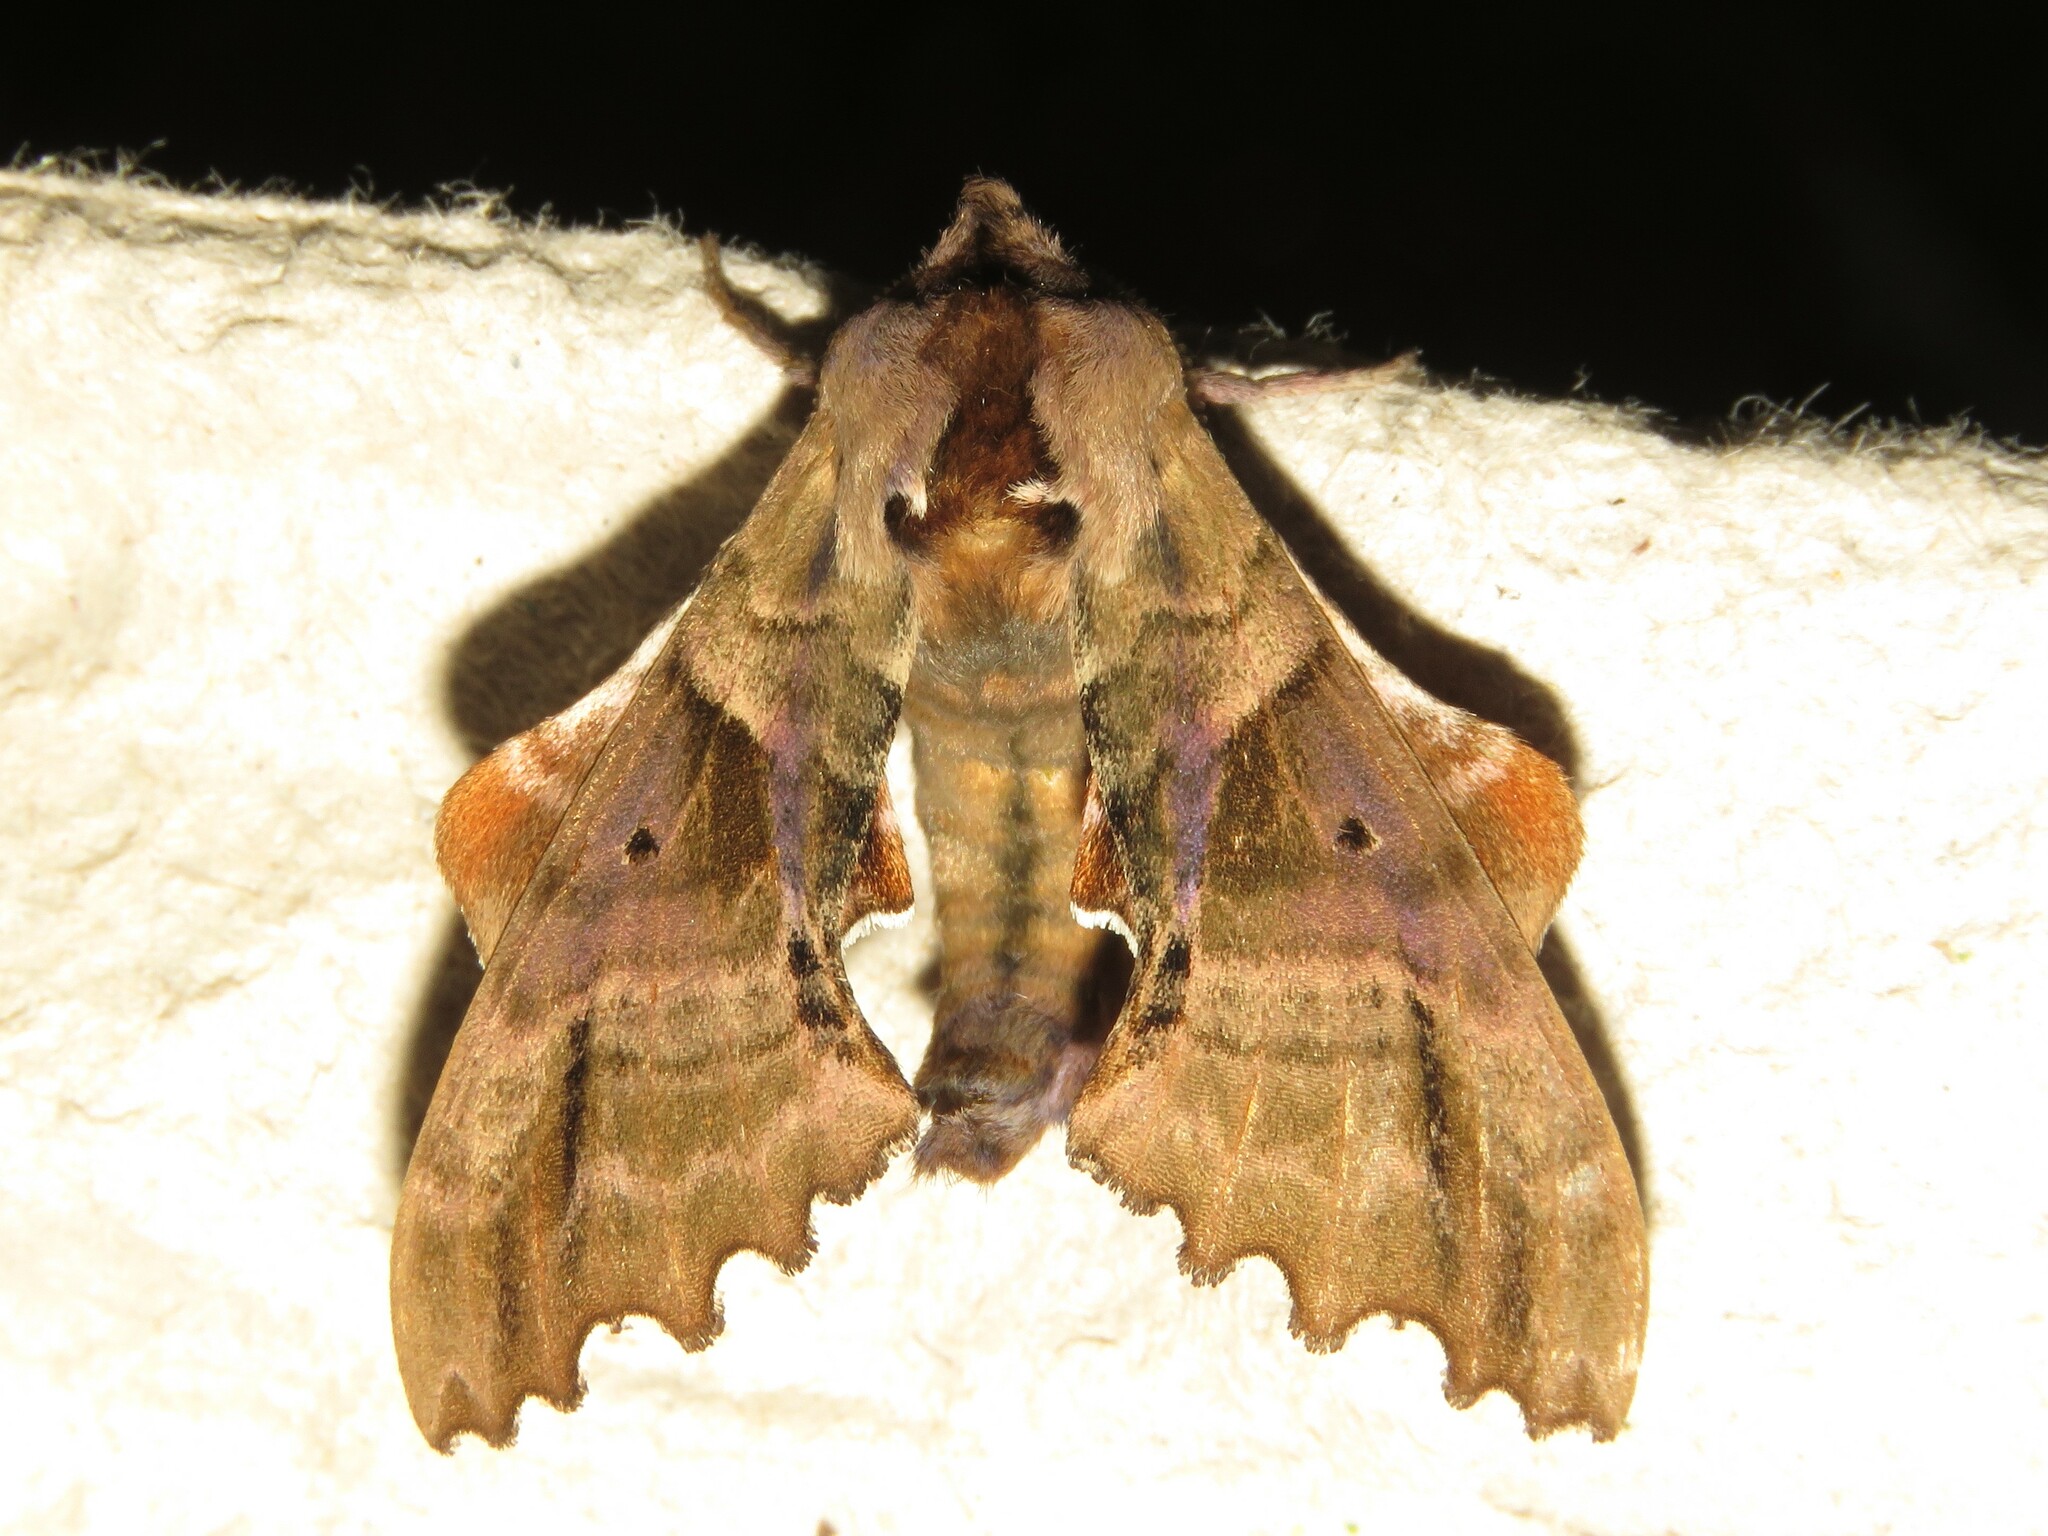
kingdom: Animalia
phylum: Arthropoda
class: Insecta
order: Lepidoptera
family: Sphingidae
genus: Paonias
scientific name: Paonias excaecata
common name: Blind-eyed sphinx
